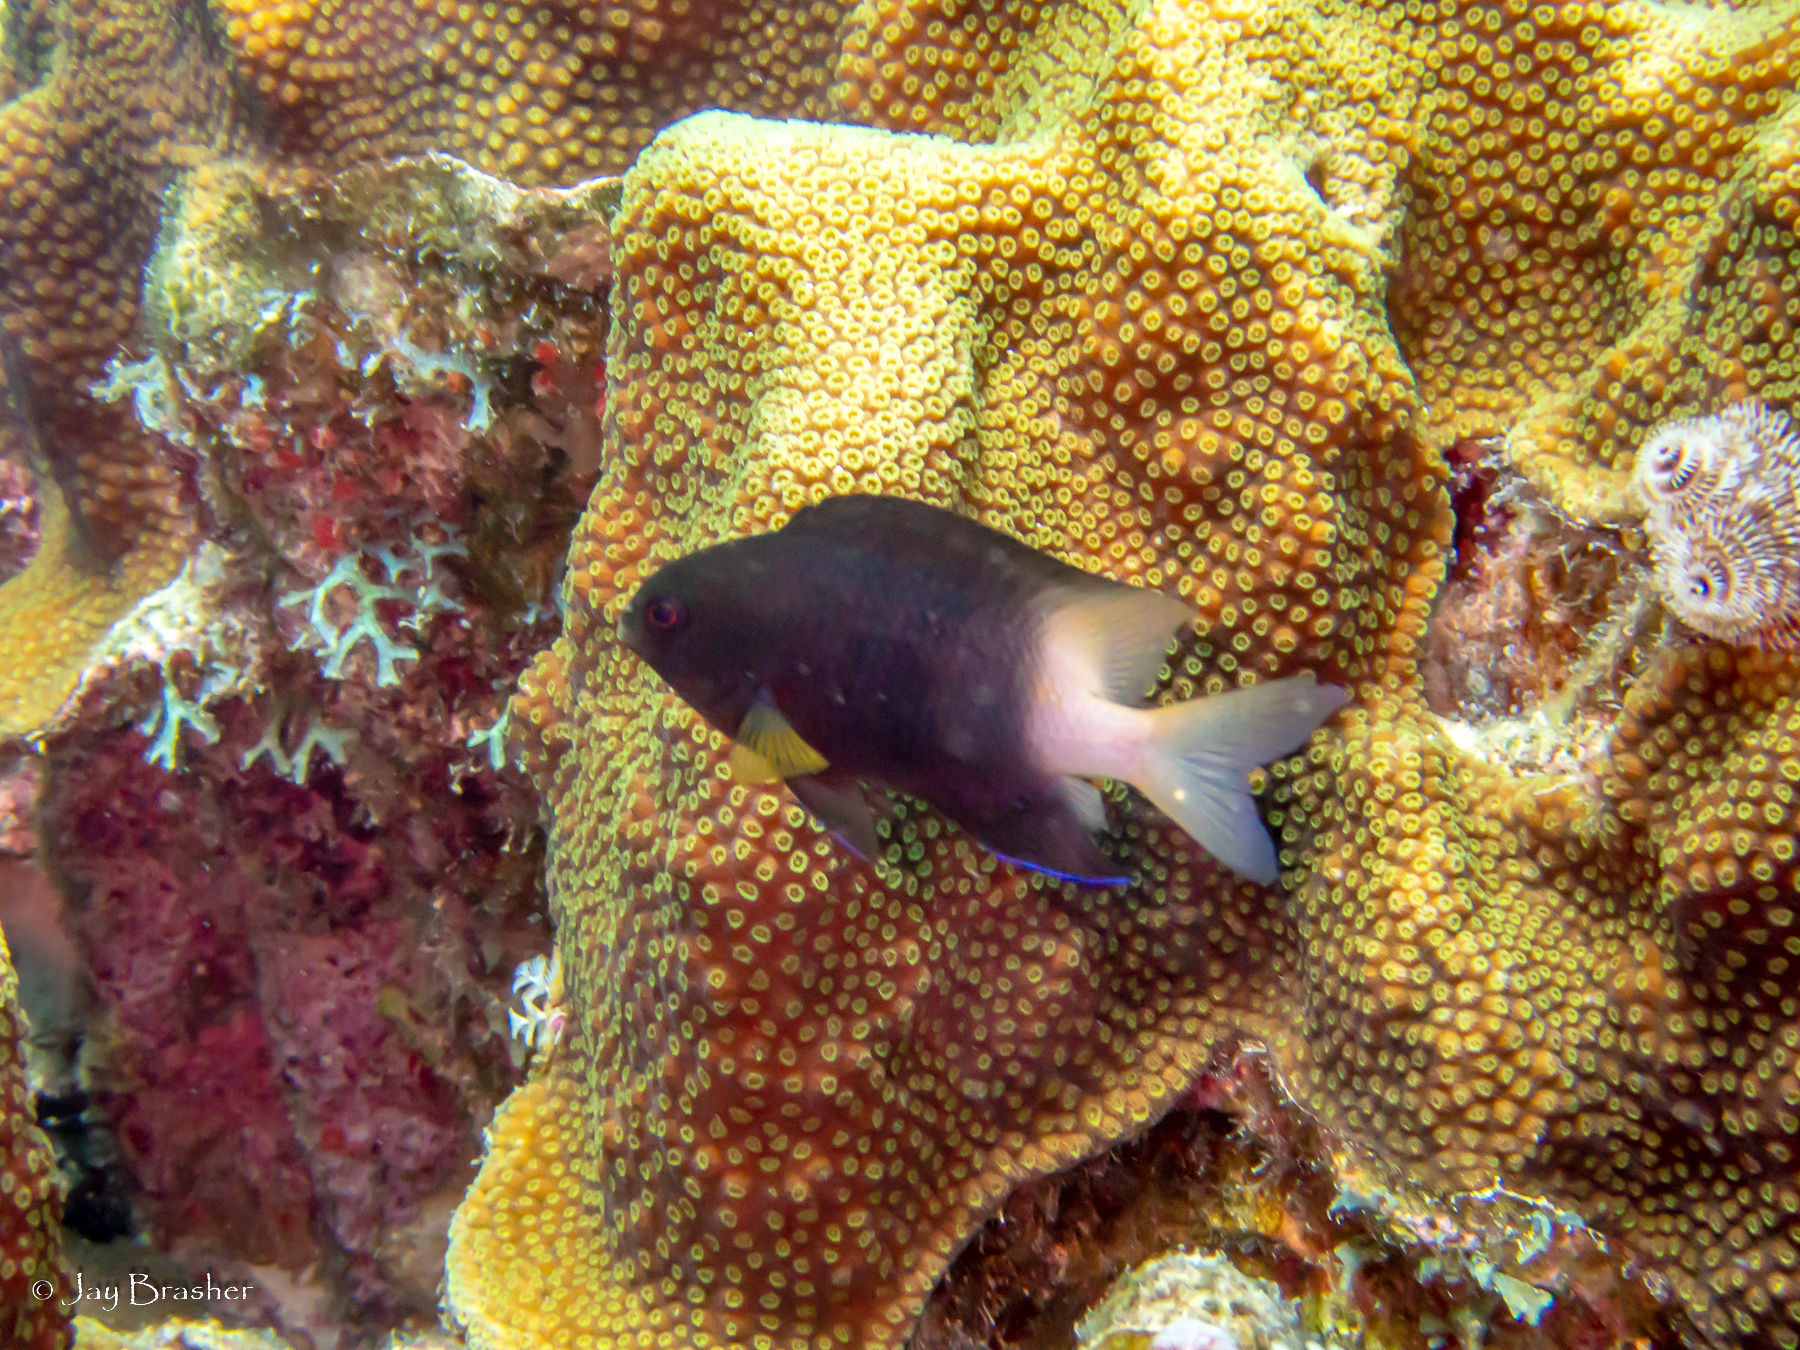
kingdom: Animalia
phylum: Chordata
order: Perciformes
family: Pomacentridae
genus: Stegastes
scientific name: Stegastes partitus
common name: Bicolor damselfish
